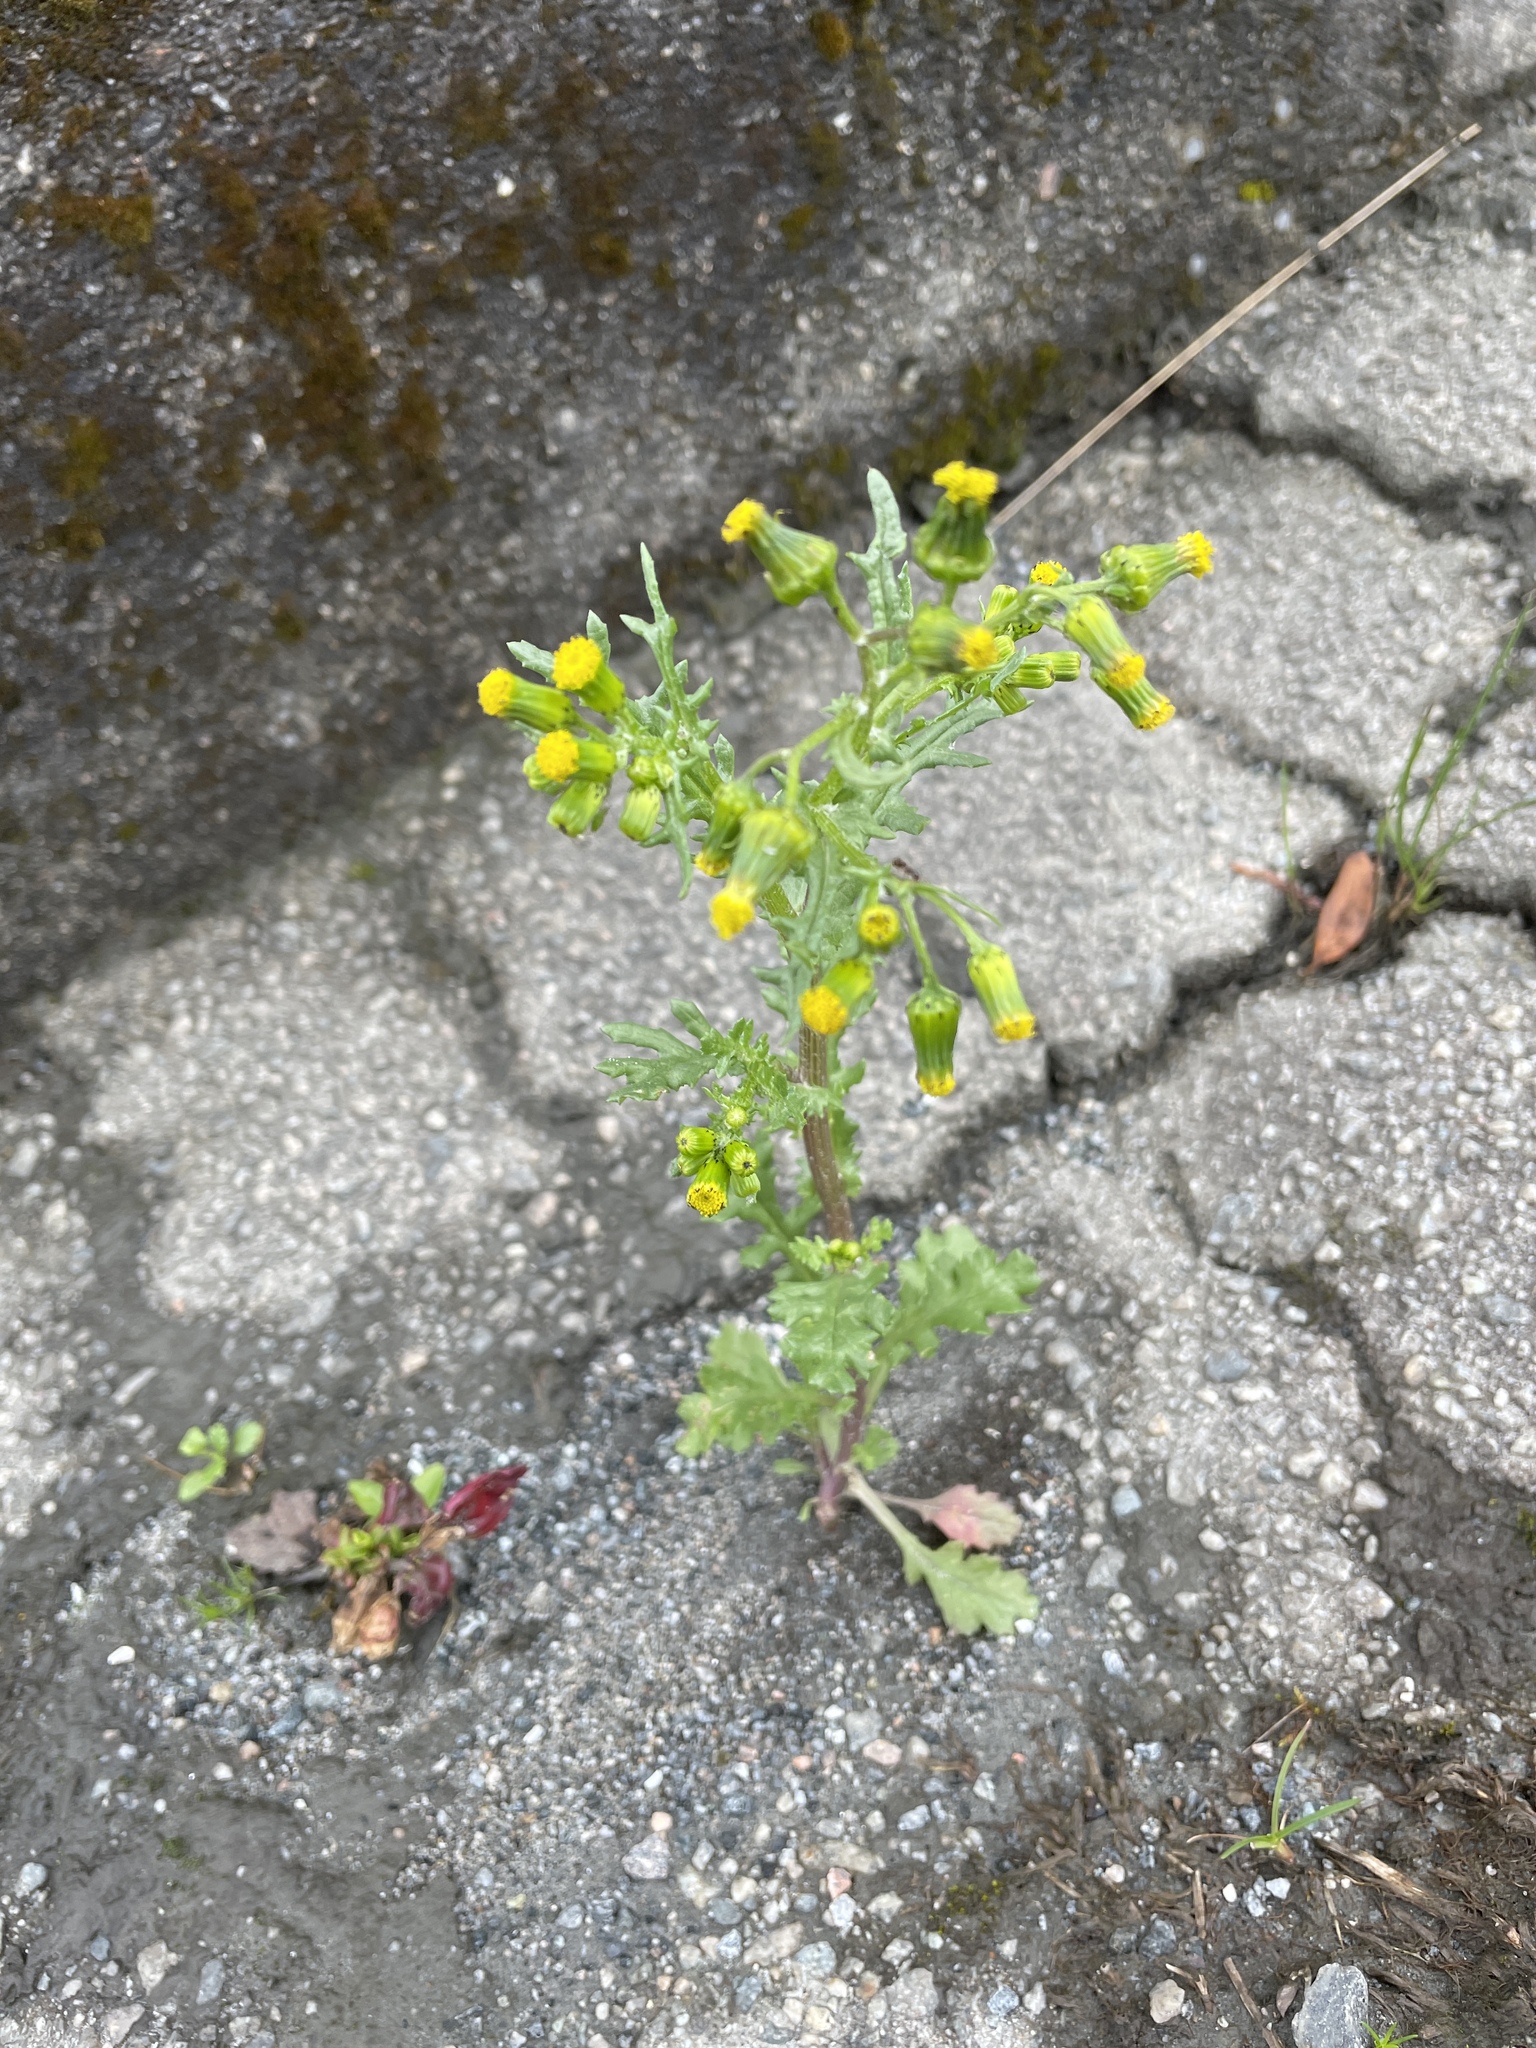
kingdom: Plantae
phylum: Tracheophyta
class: Magnoliopsida
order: Asterales
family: Asteraceae
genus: Senecio
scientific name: Senecio vulgaris
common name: Old-man-in-the-spring
